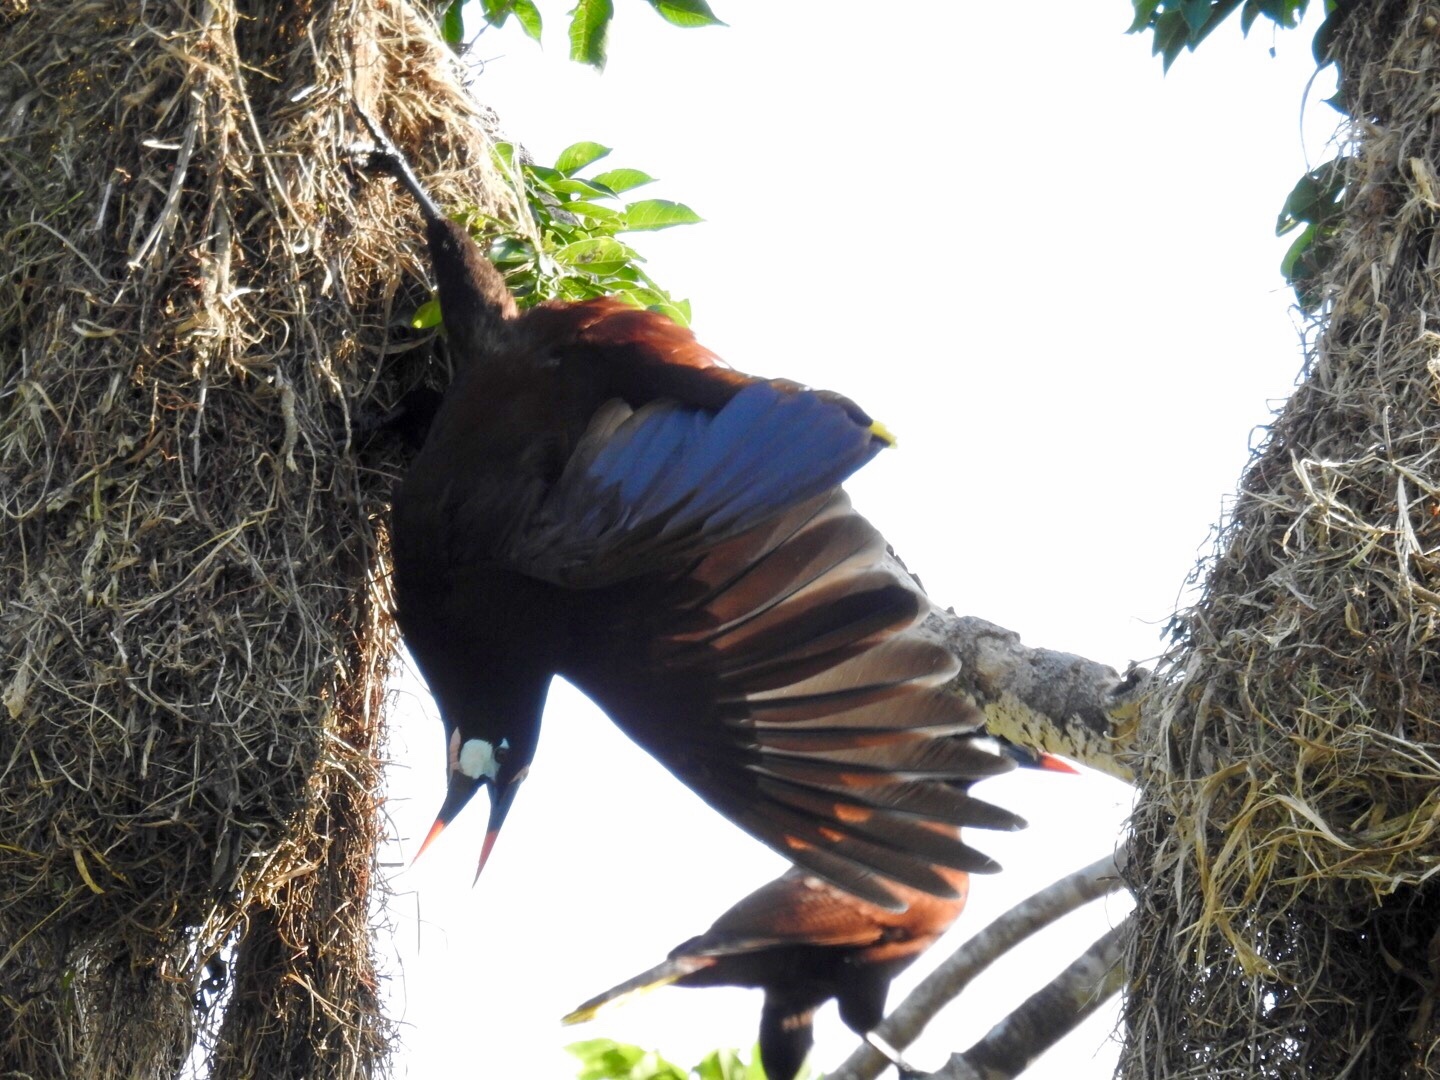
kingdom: Animalia
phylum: Chordata
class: Aves
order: Passeriformes
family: Icteridae
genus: Psarocolius
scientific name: Psarocolius montezuma
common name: Montezuma oropendola
